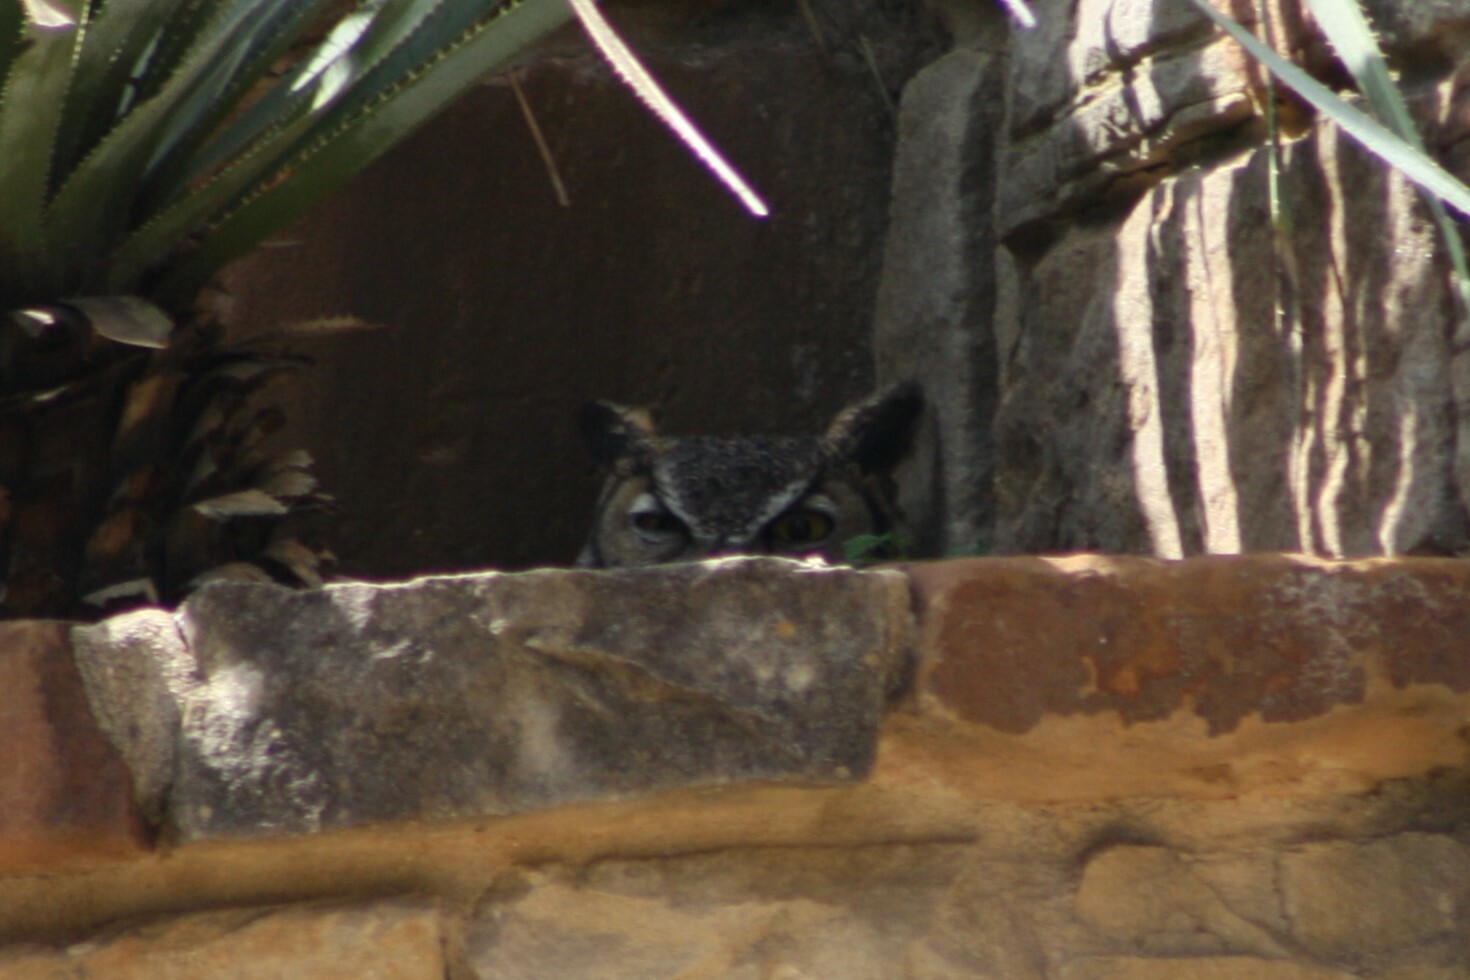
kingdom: Animalia
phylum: Chordata
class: Aves
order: Strigiformes
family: Strigidae
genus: Bubo
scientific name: Bubo virginianus
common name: Great horned owl
